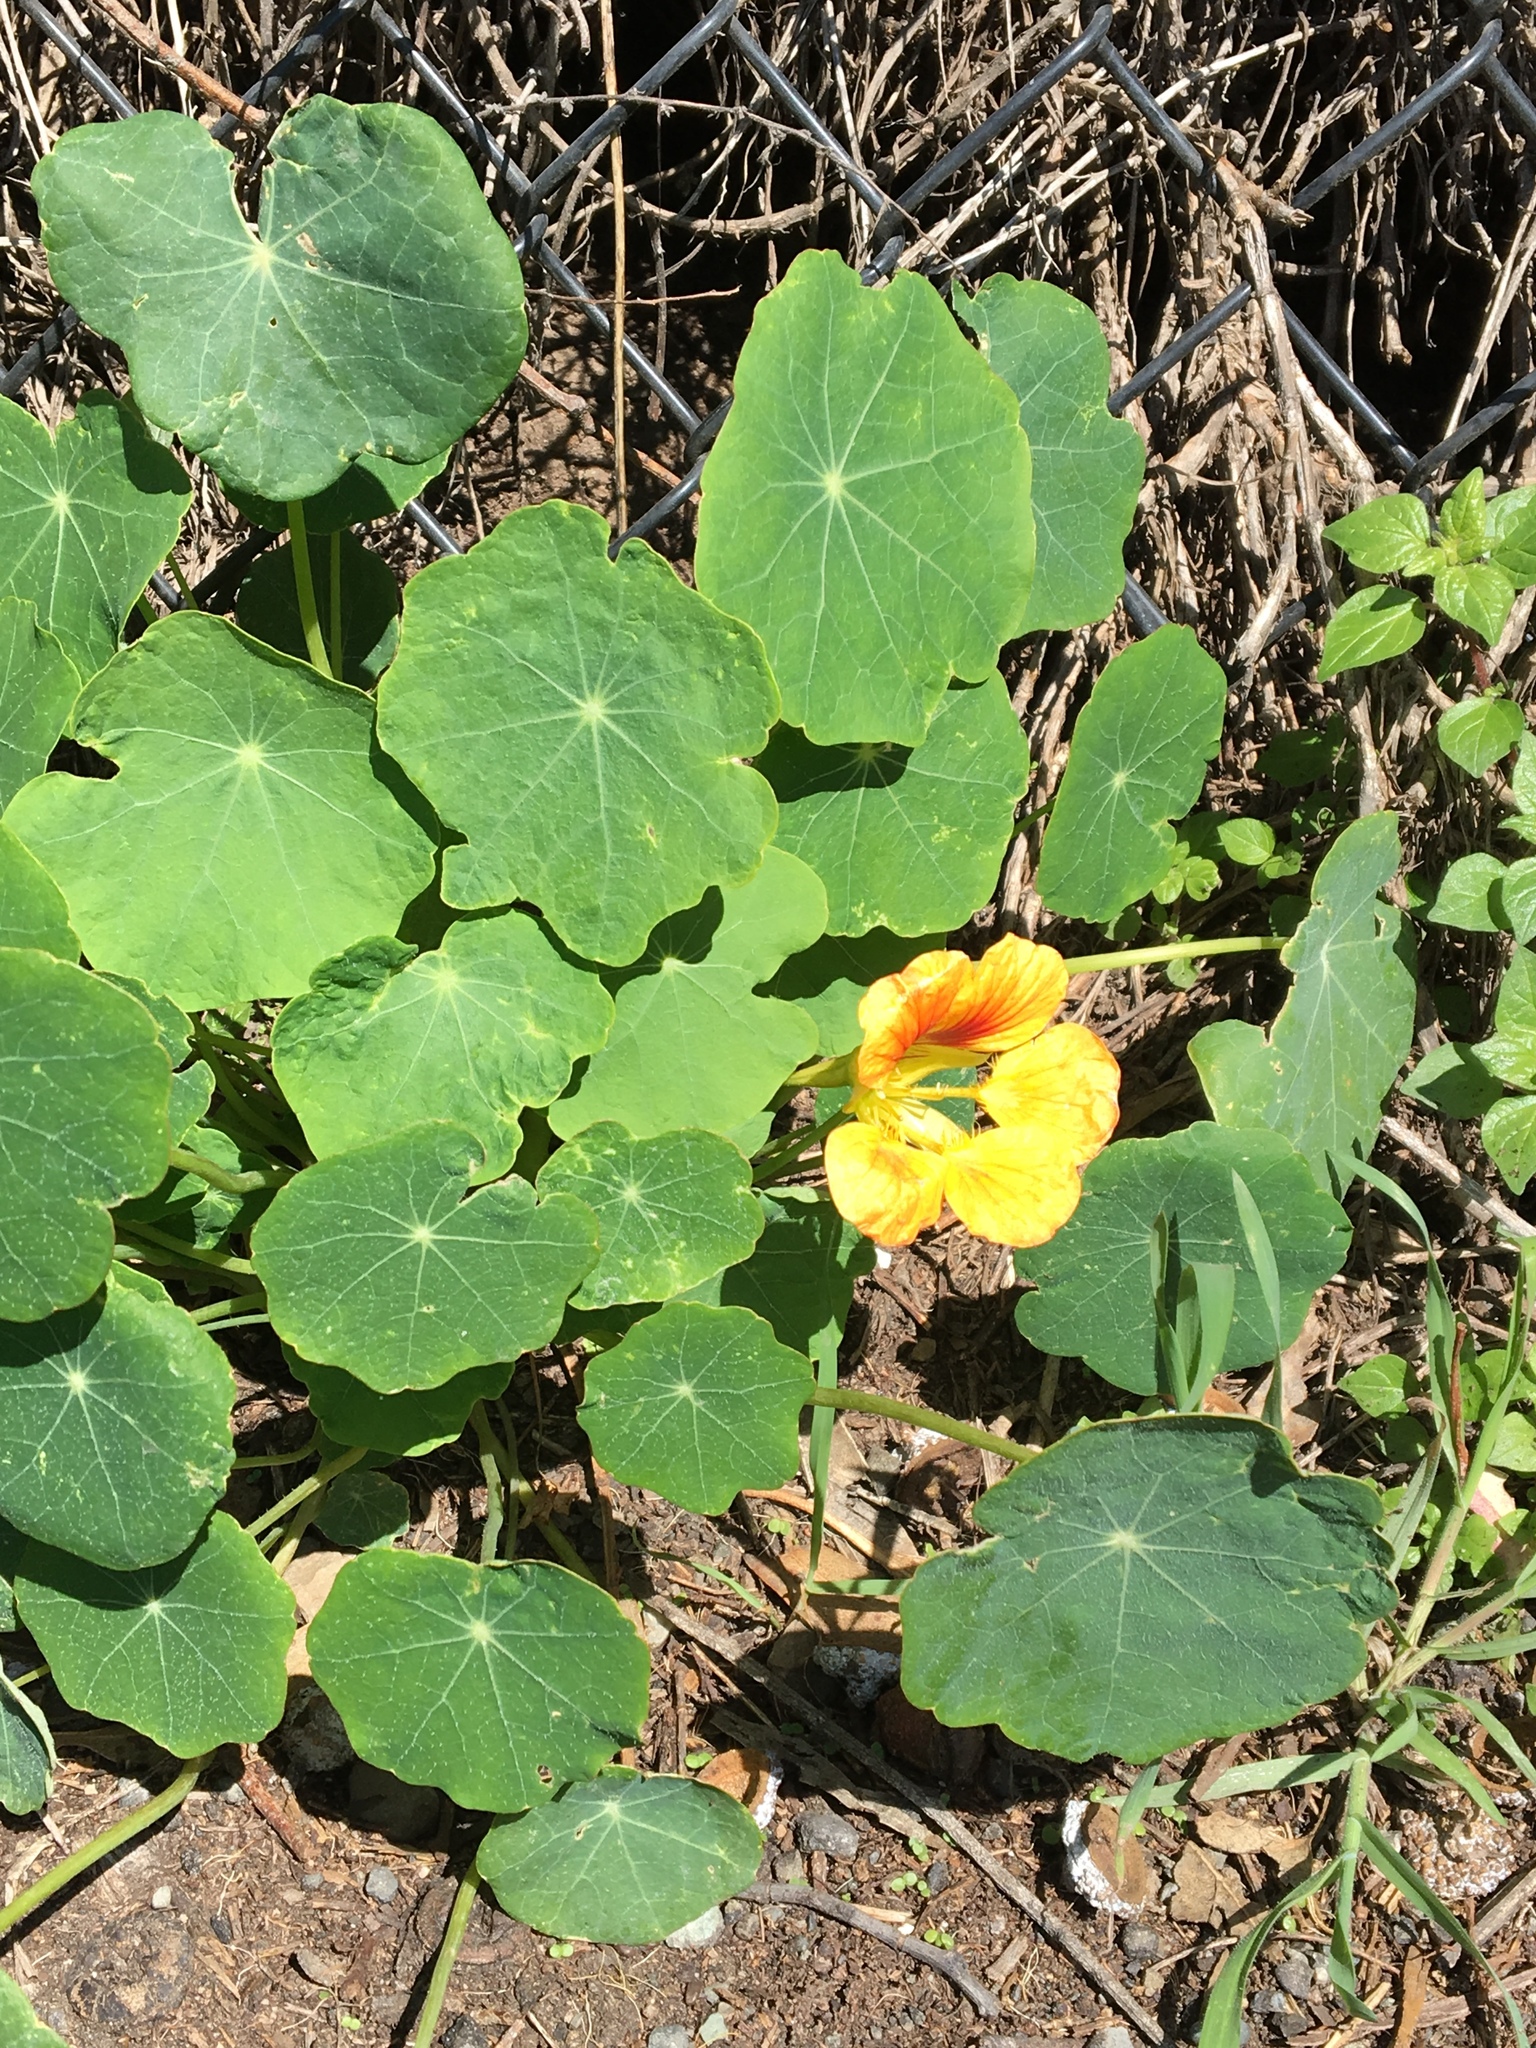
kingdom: Plantae
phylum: Tracheophyta
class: Magnoliopsida
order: Brassicales
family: Tropaeolaceae
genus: Tropaeolum
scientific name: Tropaeolum majus
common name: Nasturtium
